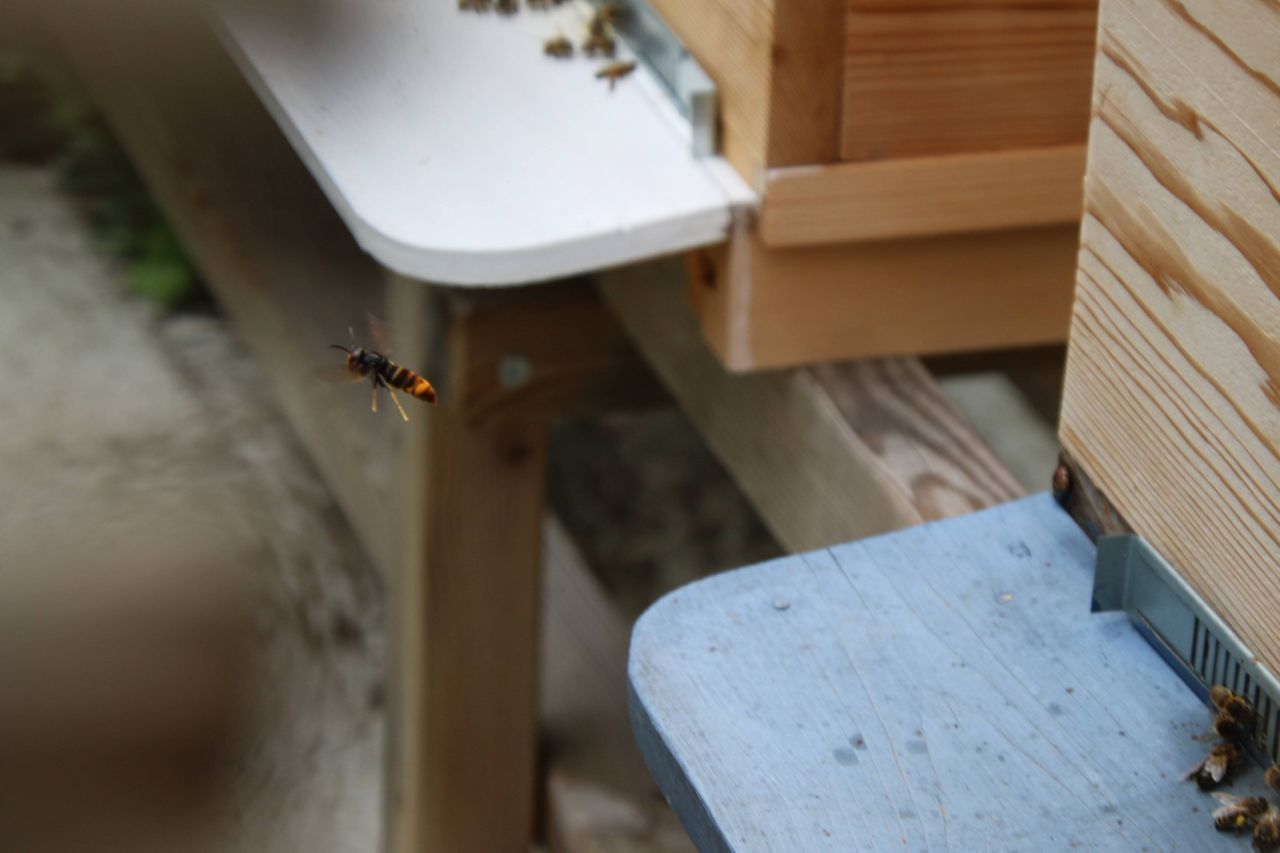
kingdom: Animalia
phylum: Arthropoda
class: Insecta
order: Hymenoptera
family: Vespidae
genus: Vespa
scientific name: Vespa velutina
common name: Asian hornet
